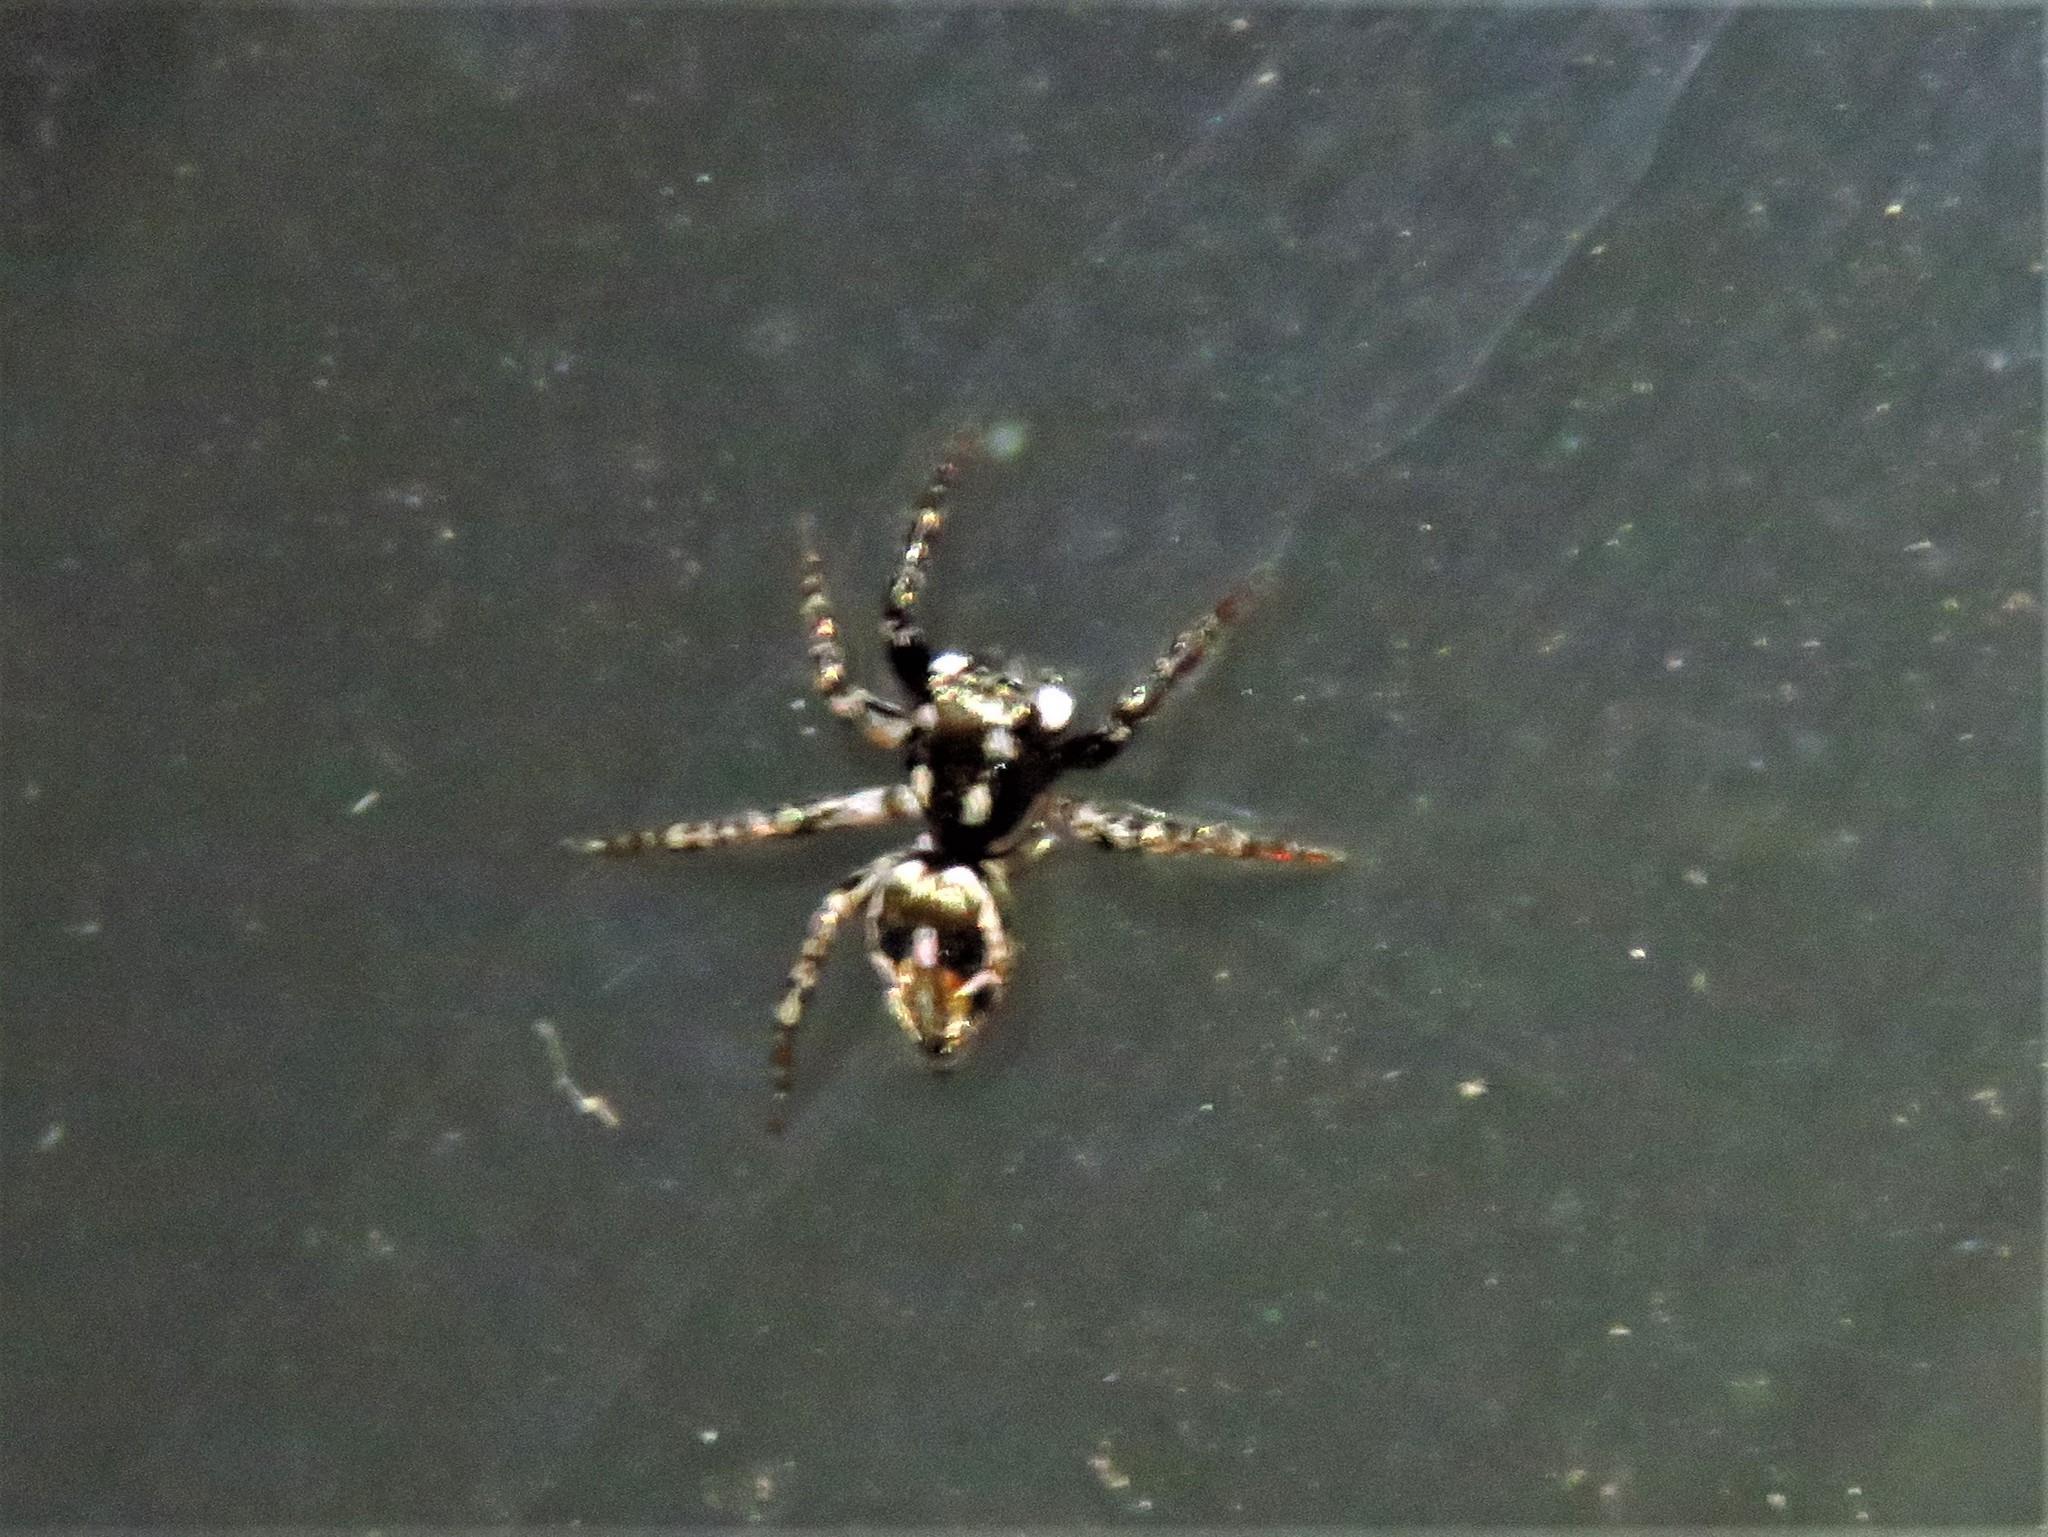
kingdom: Animalia
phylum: Arthropoda
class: Arachnida
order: Araneae
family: Salticidae
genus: Anasaitis
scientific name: Anasaitis canosa
